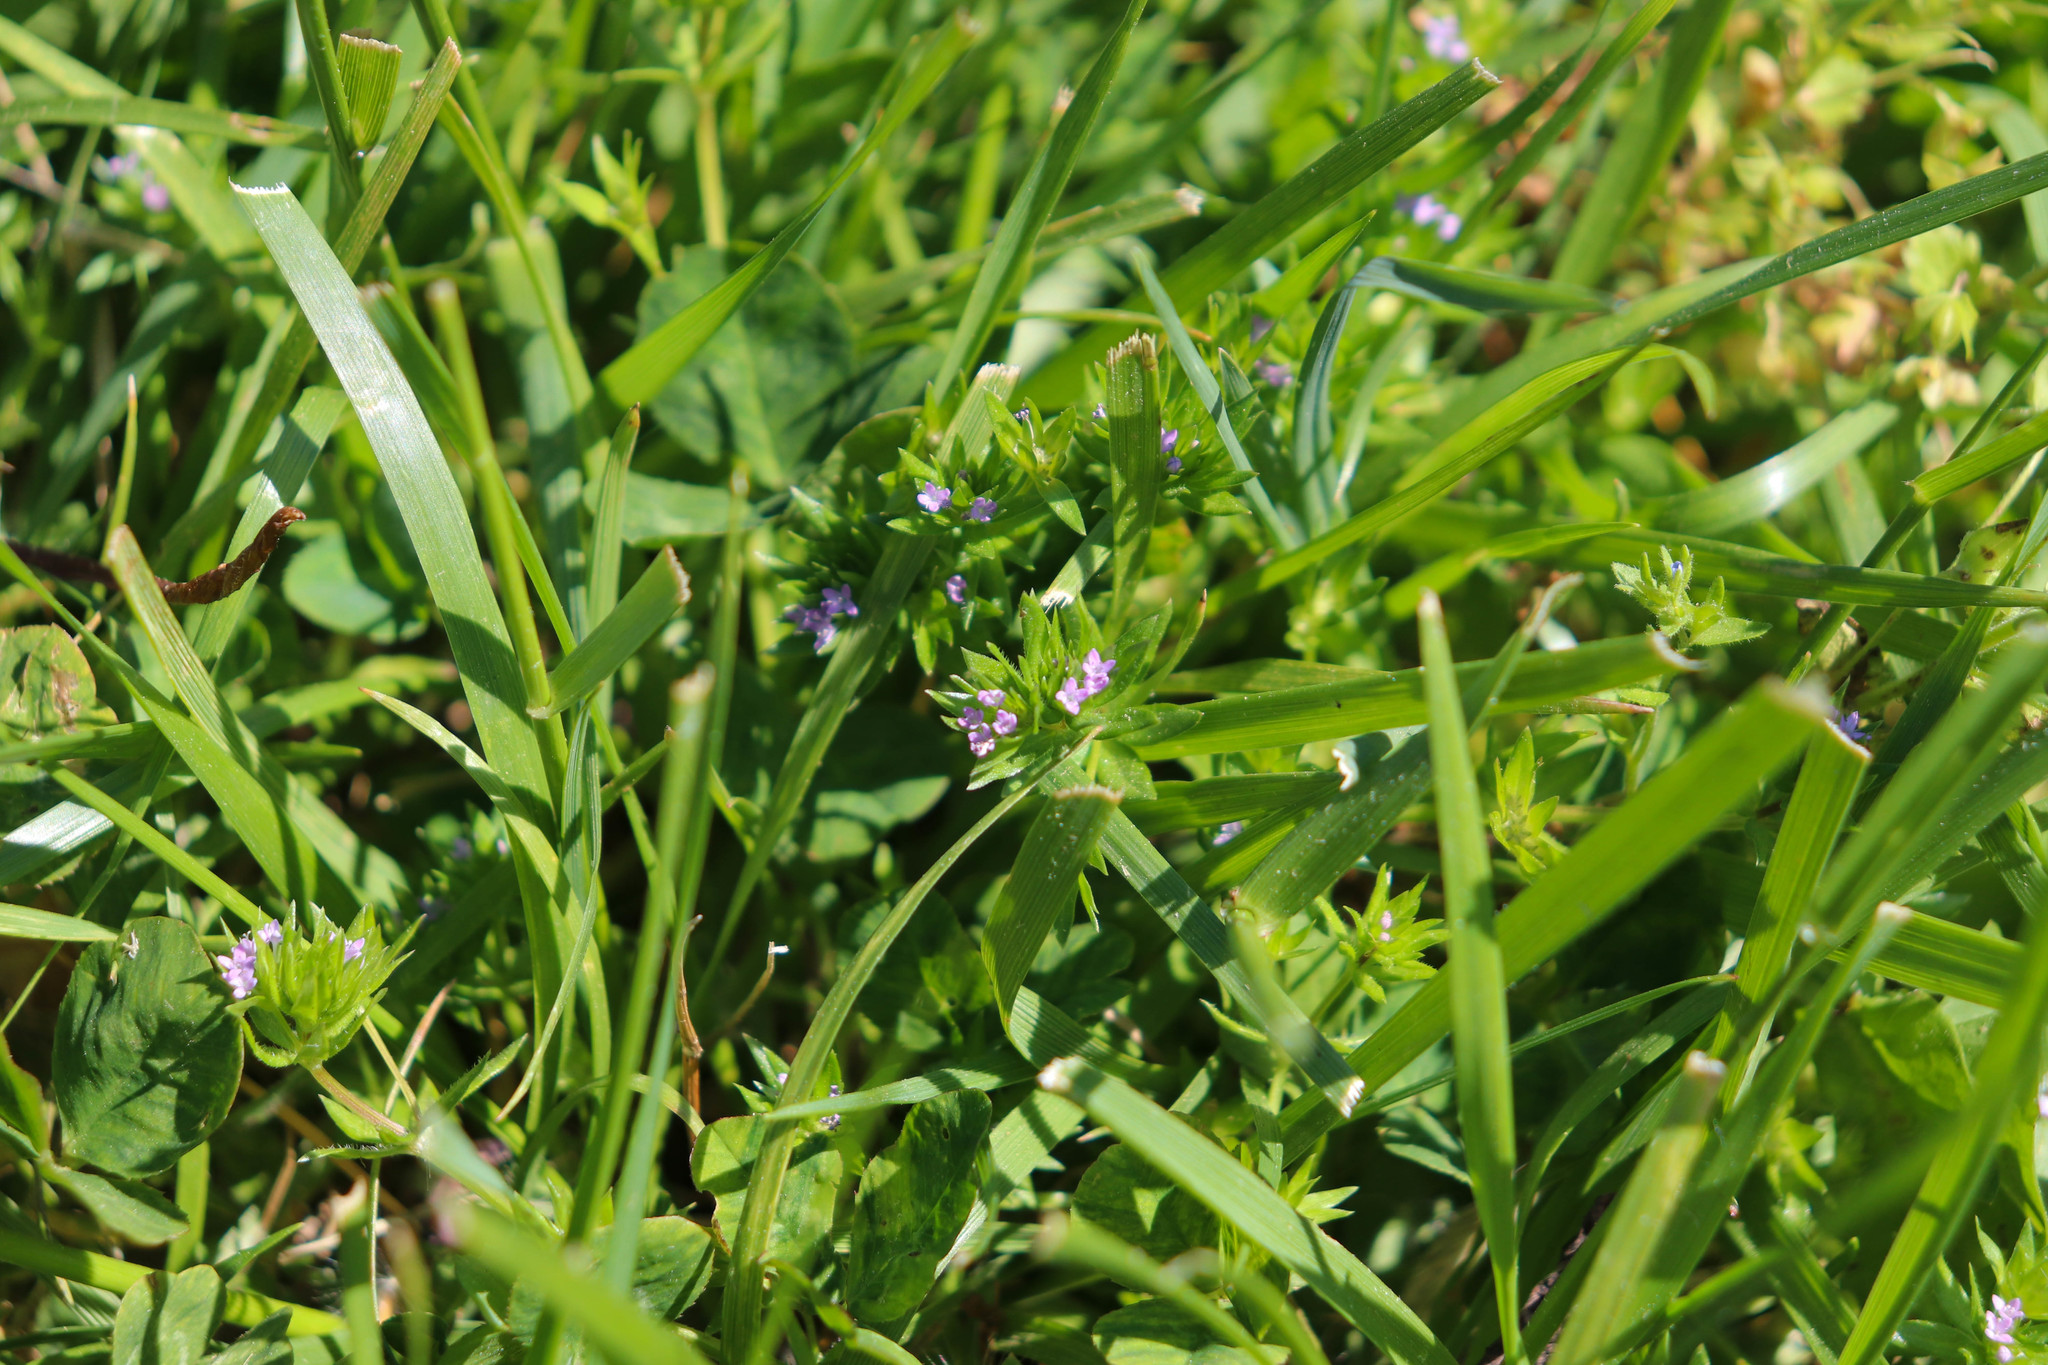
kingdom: Plantae
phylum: Tracheophyta
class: Magnoliopsida
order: Gentianales
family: Rubiaceae
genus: Sherardia
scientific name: Sherardia arvensis
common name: Field madder
